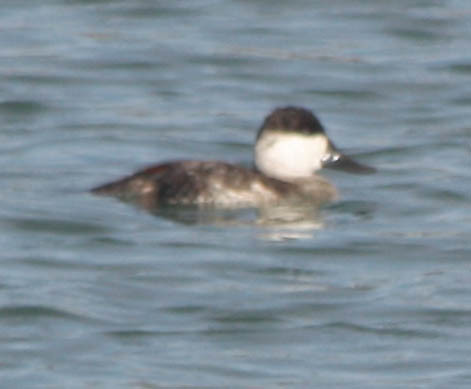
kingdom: Animalia
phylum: Chordata
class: Aves
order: Anseriformes
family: Anatidae
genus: Oxyura
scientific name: Oxyura jamaicensis
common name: Ruddy duck
